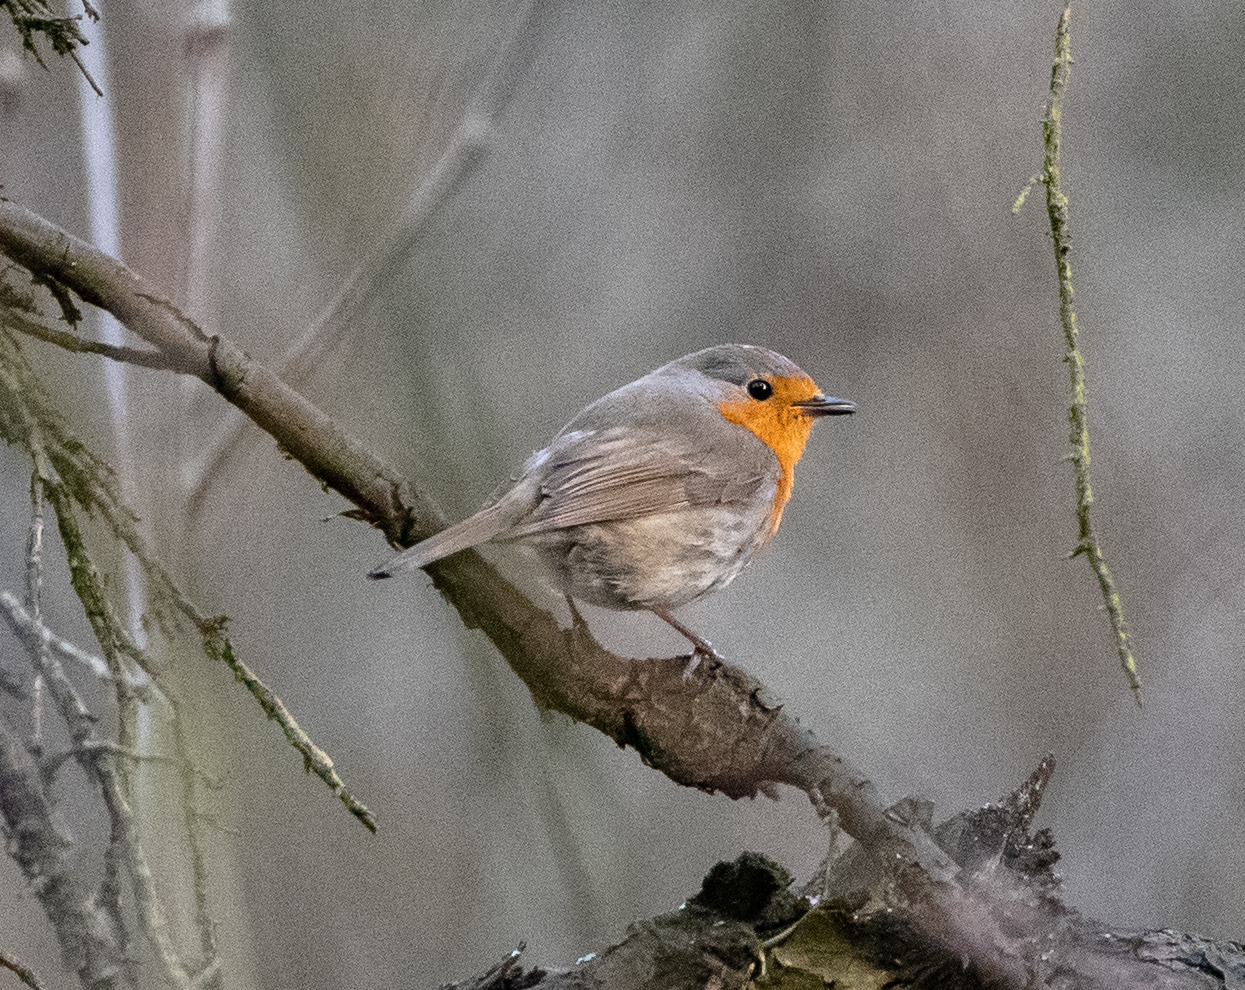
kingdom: Animalia
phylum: Chordata
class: Aves
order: Passeriformes
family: Muscicapidae
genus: Erithacus
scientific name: Erithacus rubecula
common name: European robin
